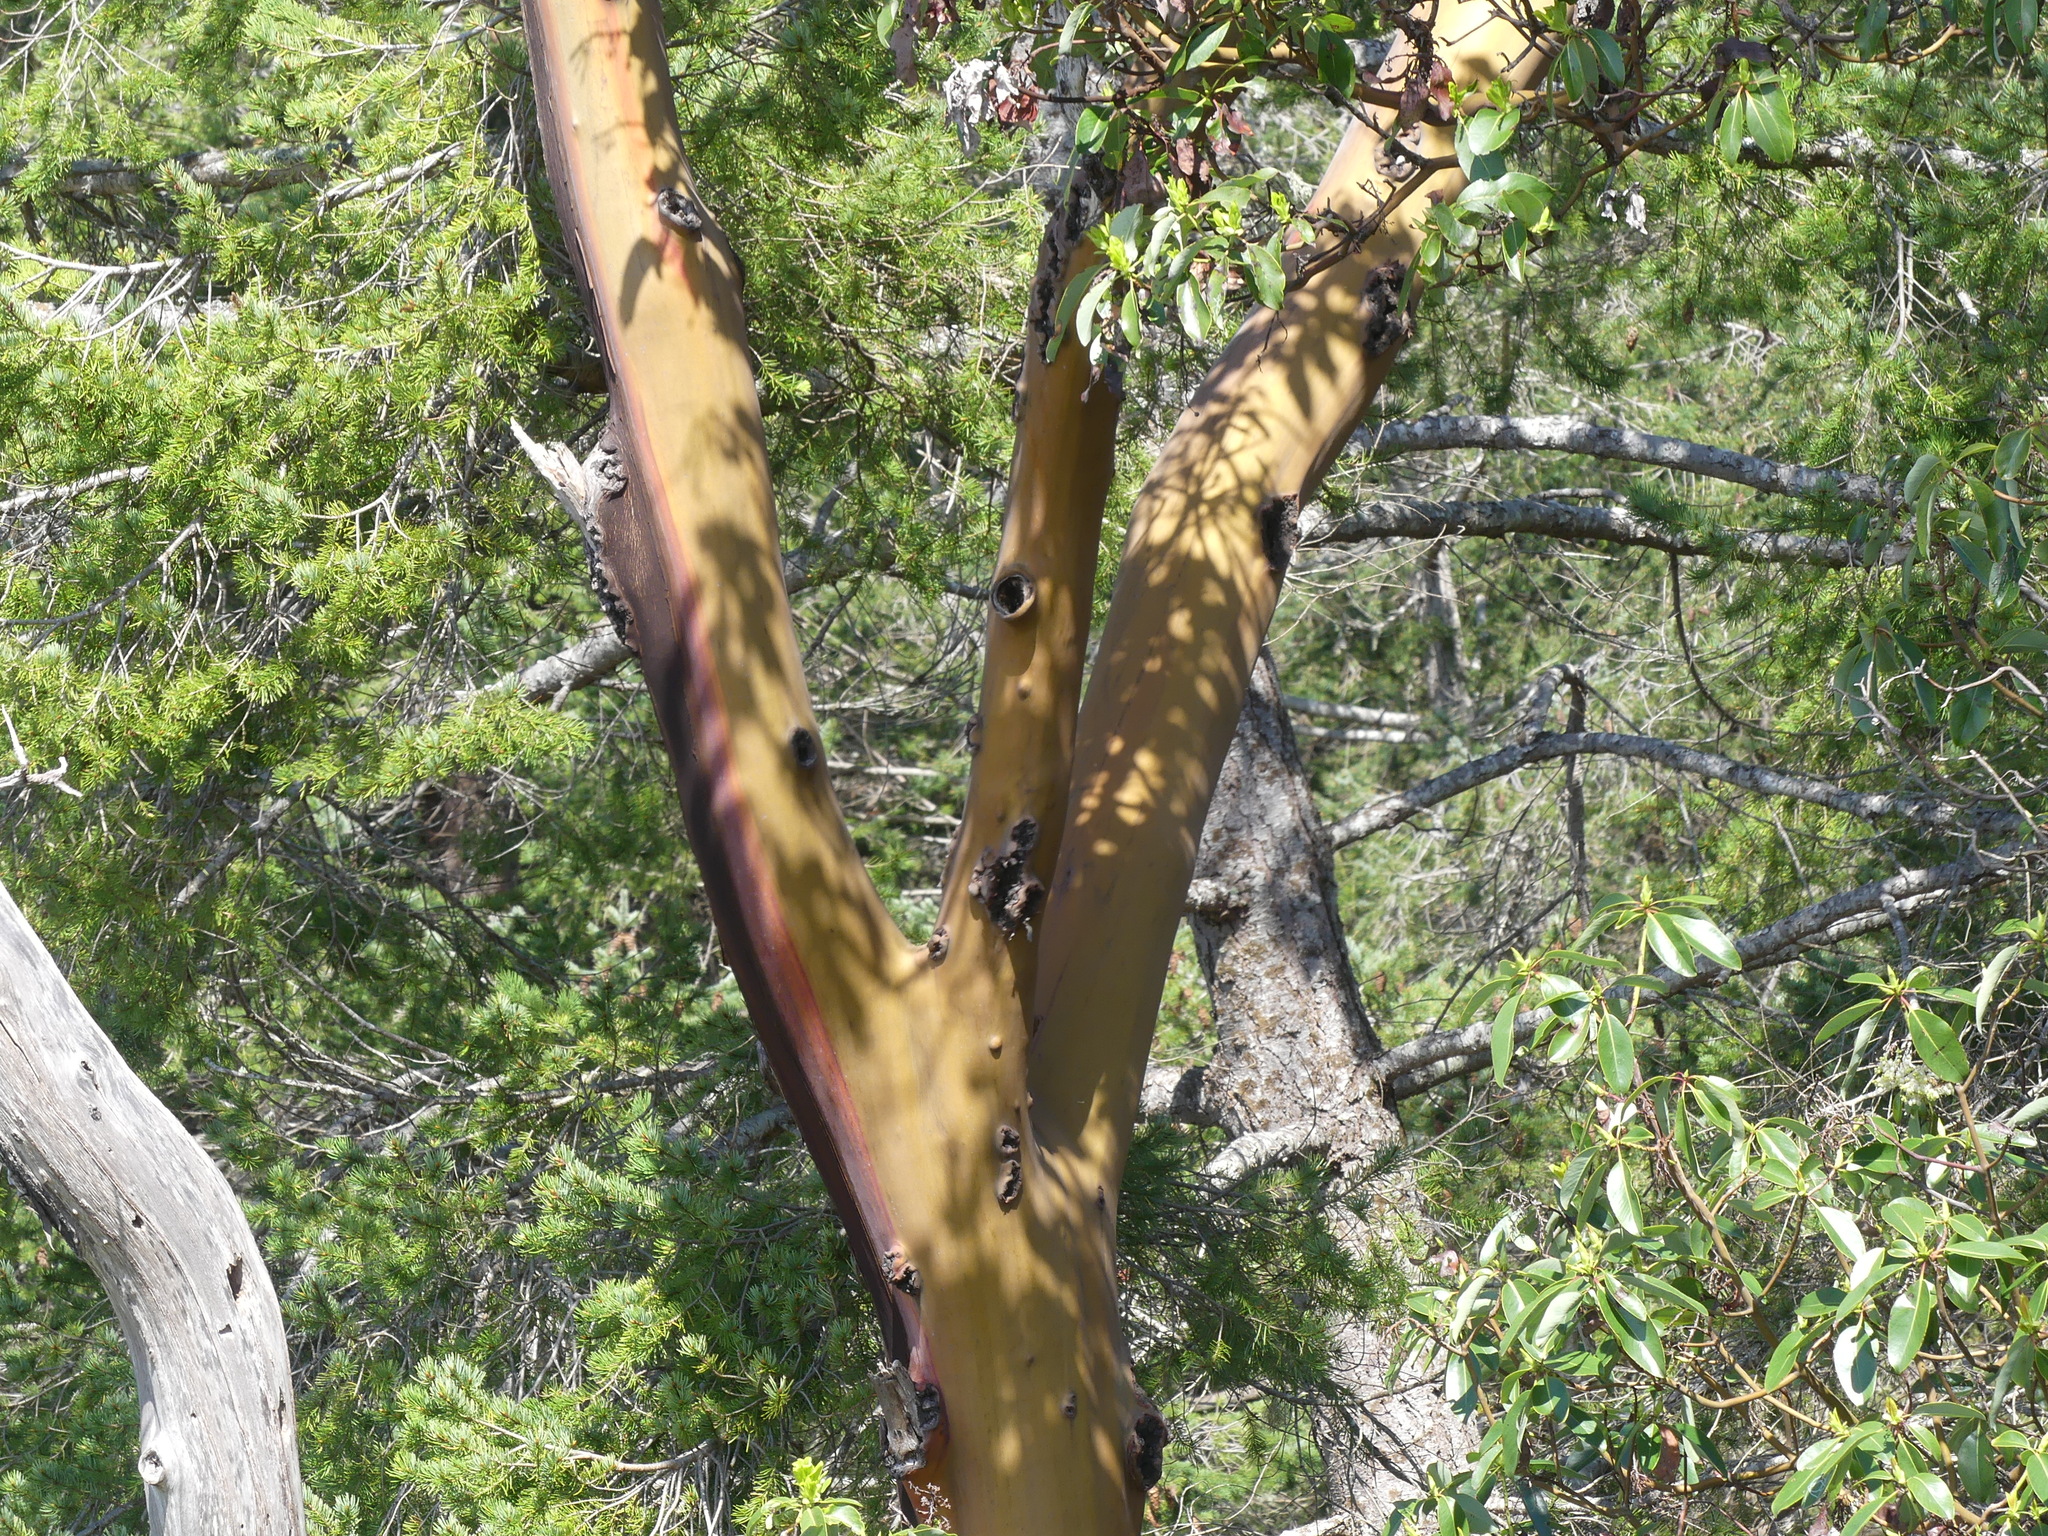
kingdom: Plantae
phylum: Tracheophyta
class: Magnoliopsida
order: Ericales
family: Ericaceae
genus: Arbutus
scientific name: Arbutus menziesii
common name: Pacific madrone
